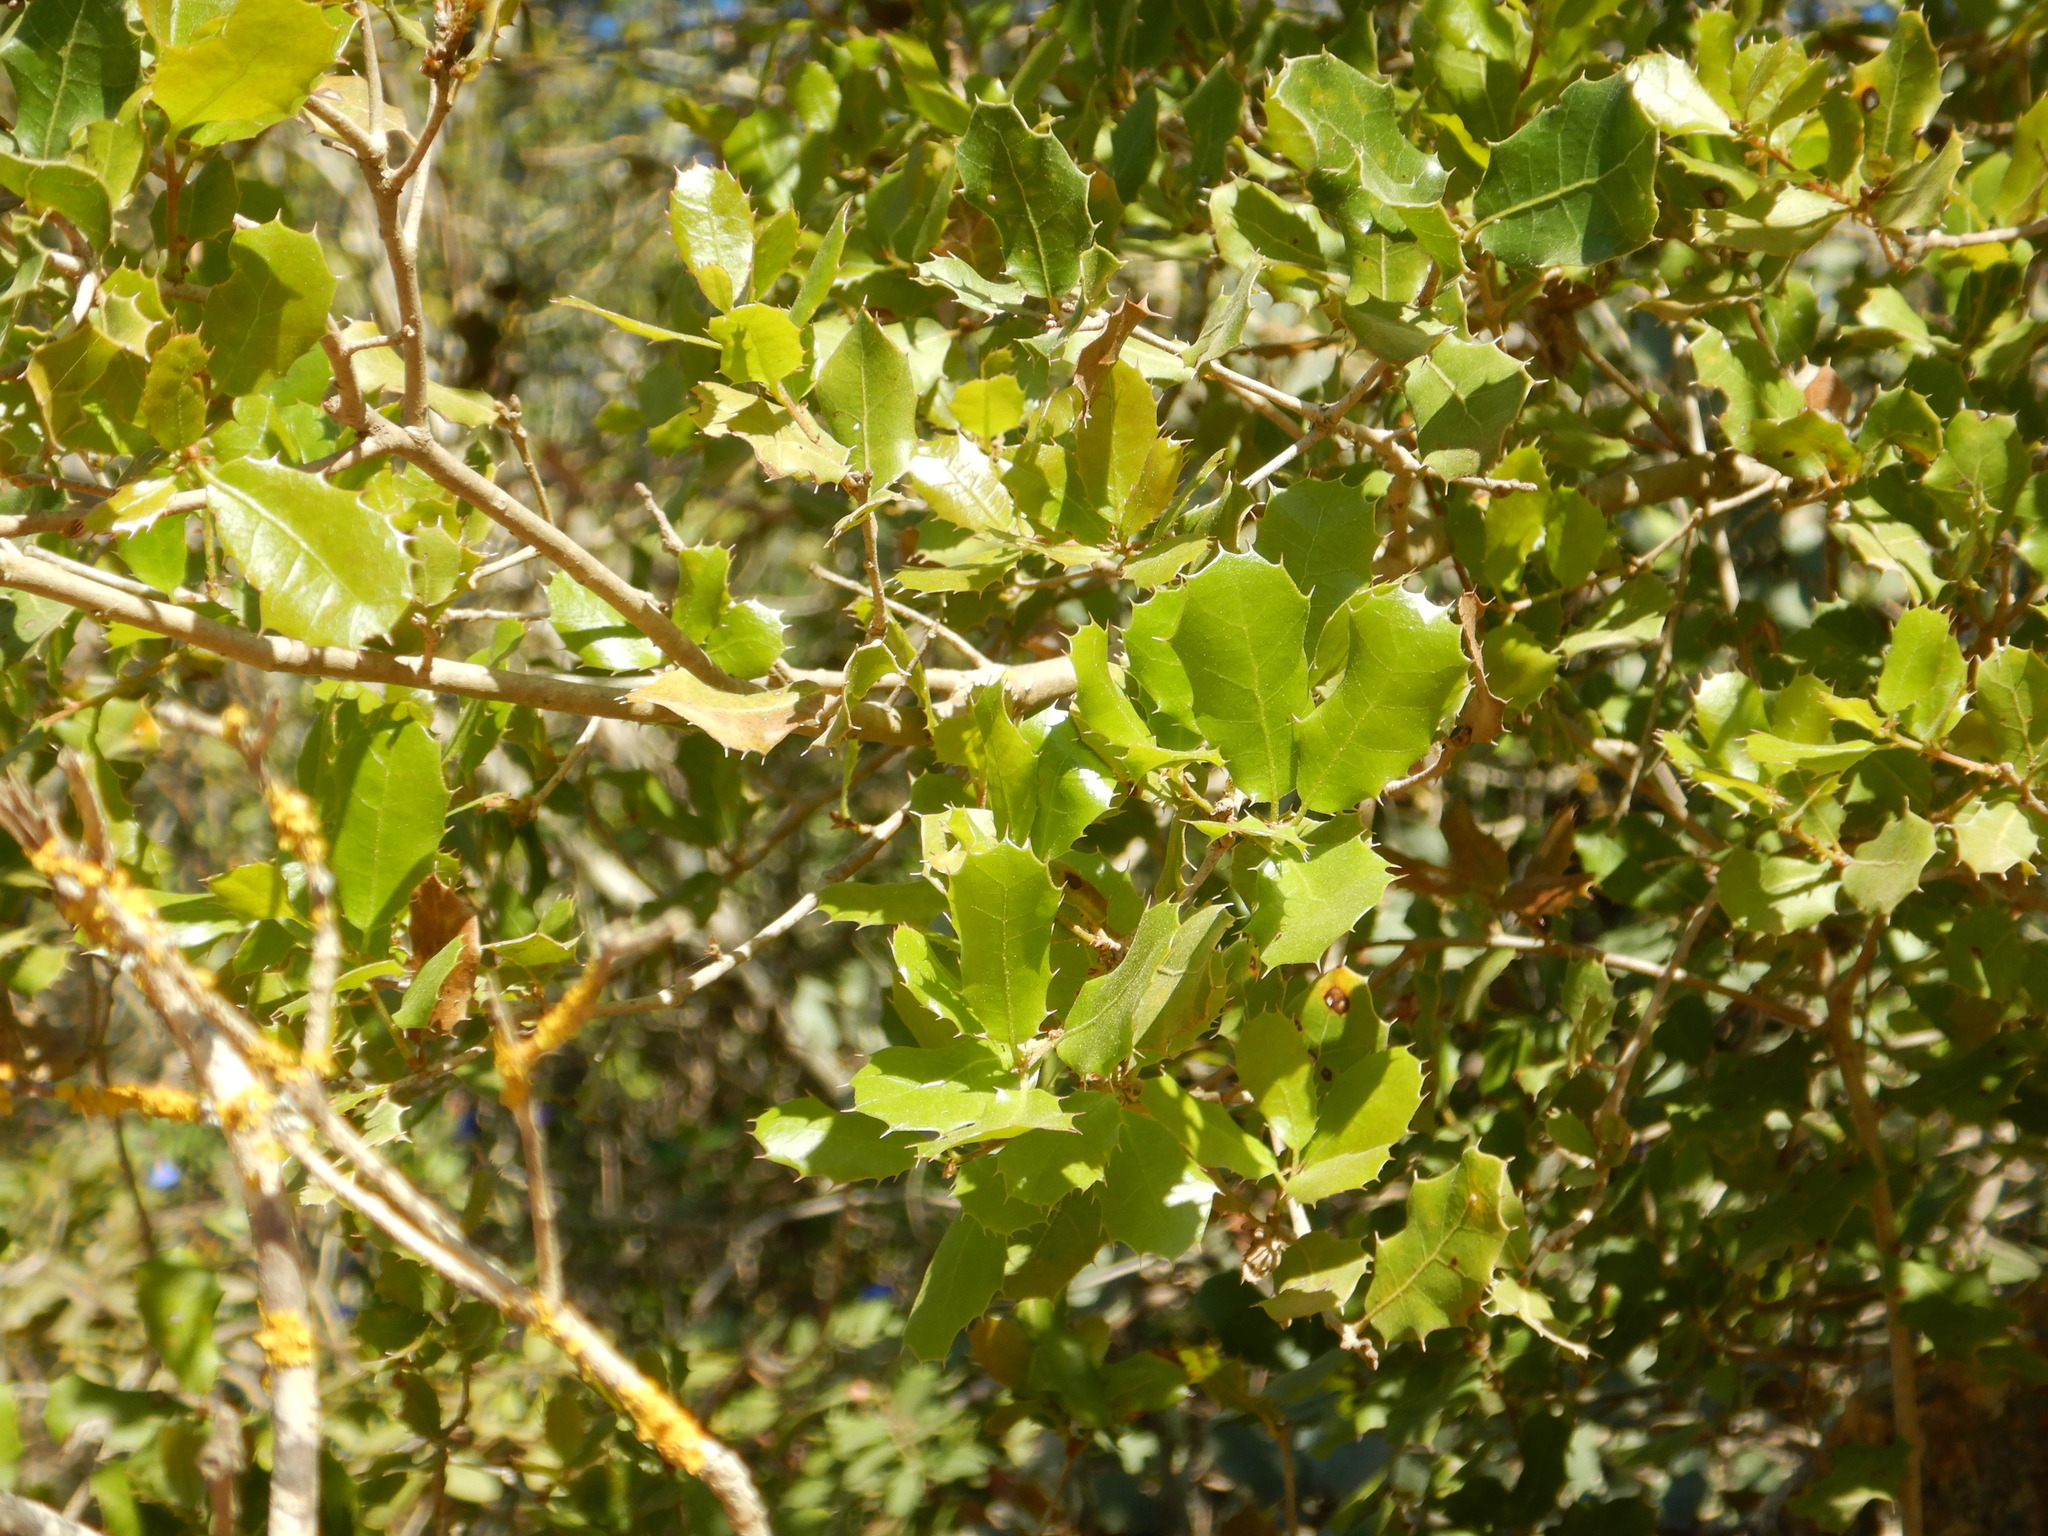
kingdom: Plantae
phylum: Tracheophyta
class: Magnoliopsida
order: Fagales
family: Fagaceae
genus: Quercus
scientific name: Quercus coccifera
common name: Kermes oak
